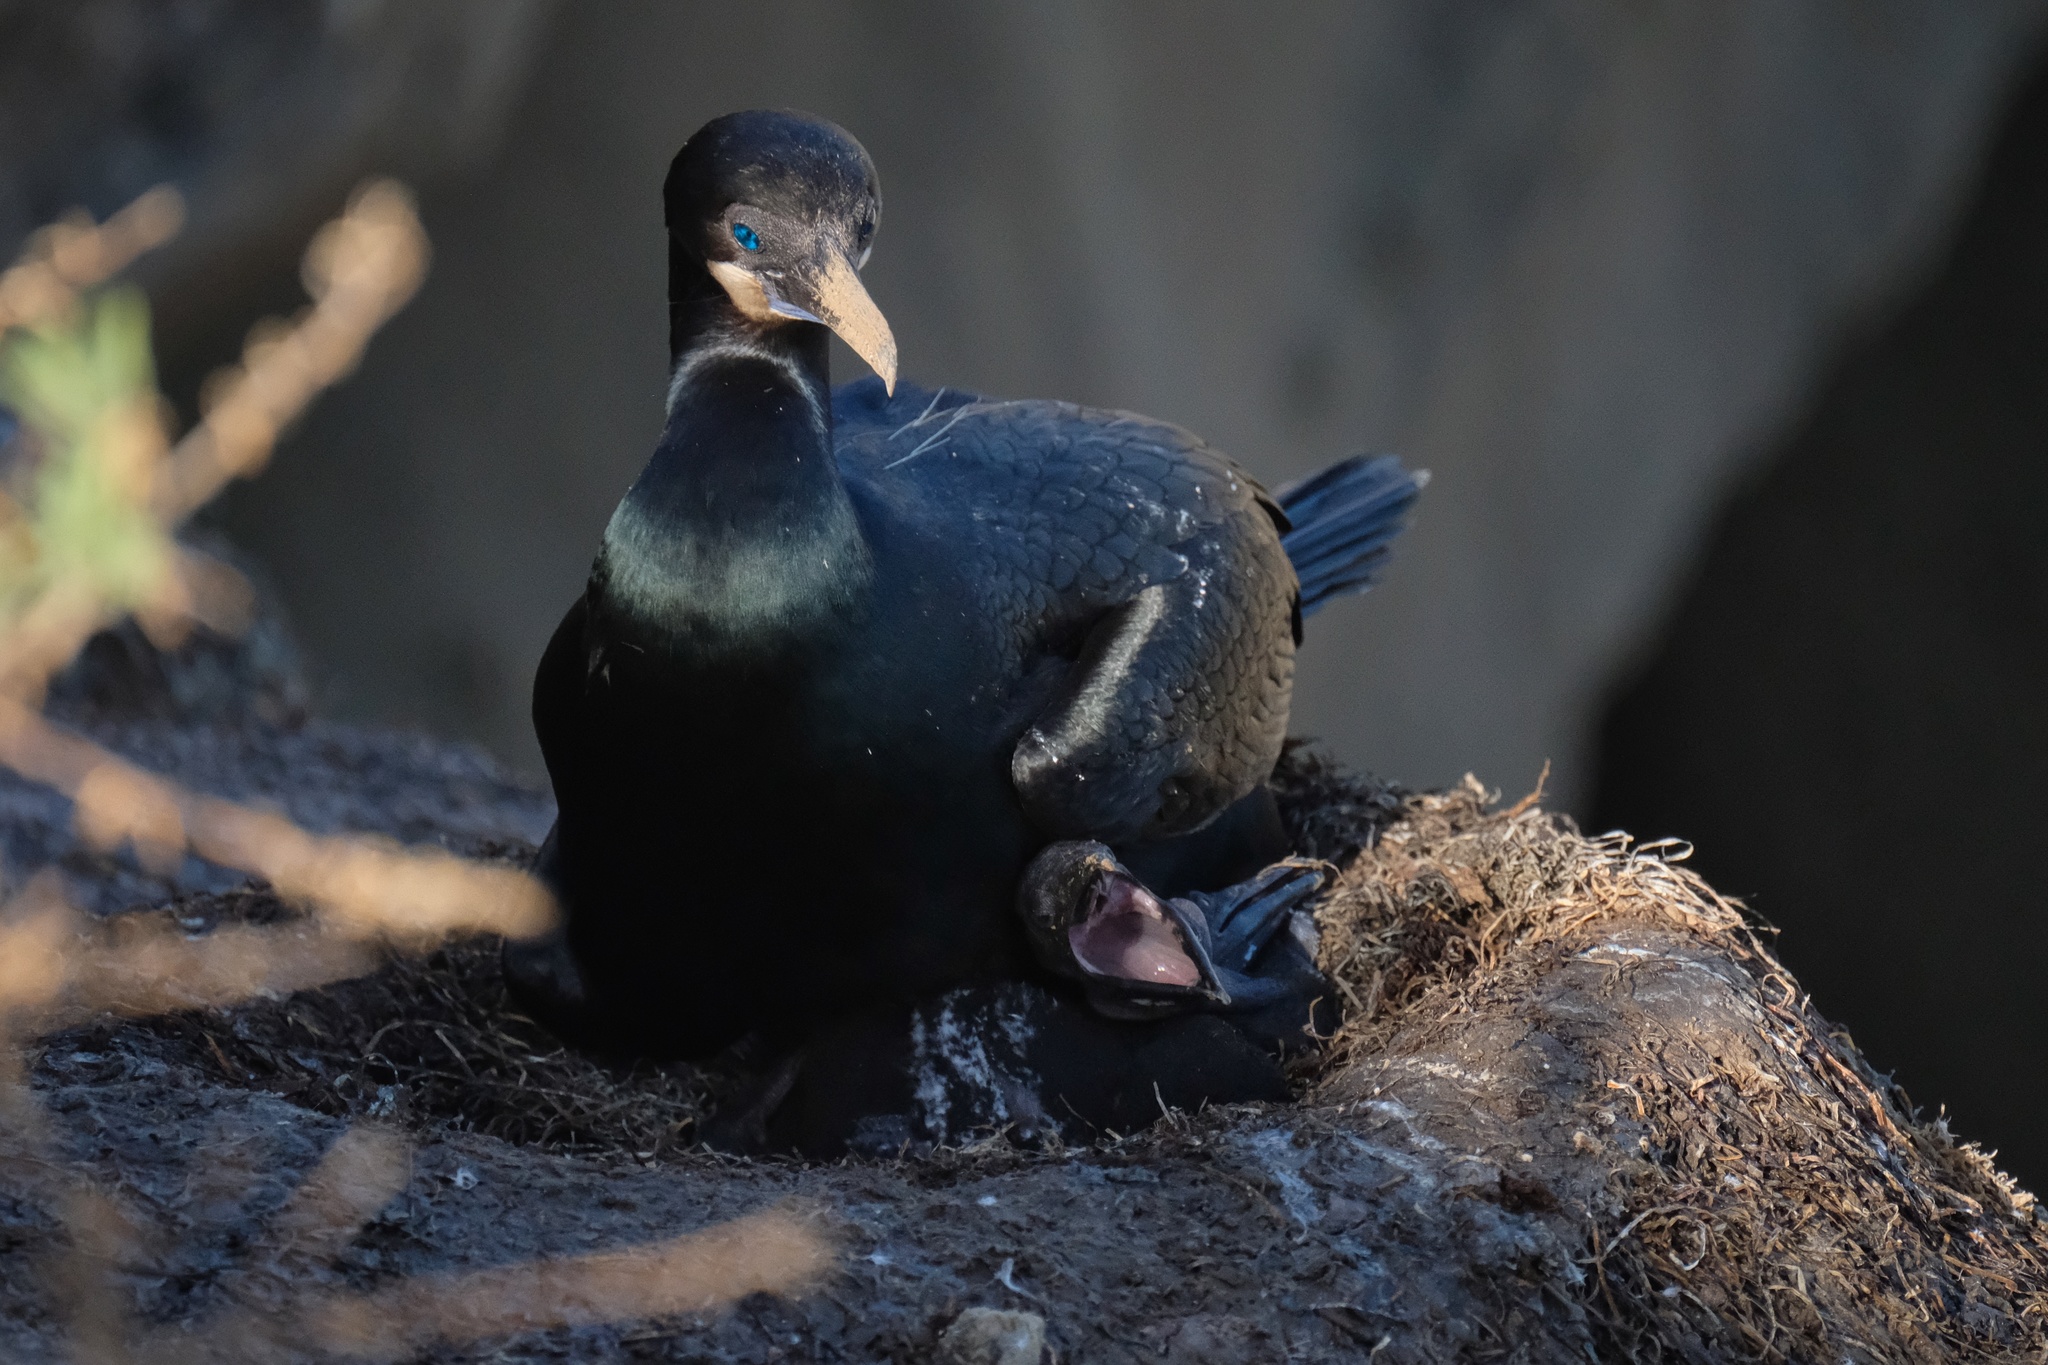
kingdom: Animalia
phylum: Chordata
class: Aves
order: Suliformes
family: Phalacrocoracidae
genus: Urile
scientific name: Urile penicillatus
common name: Brandt's cormorant
